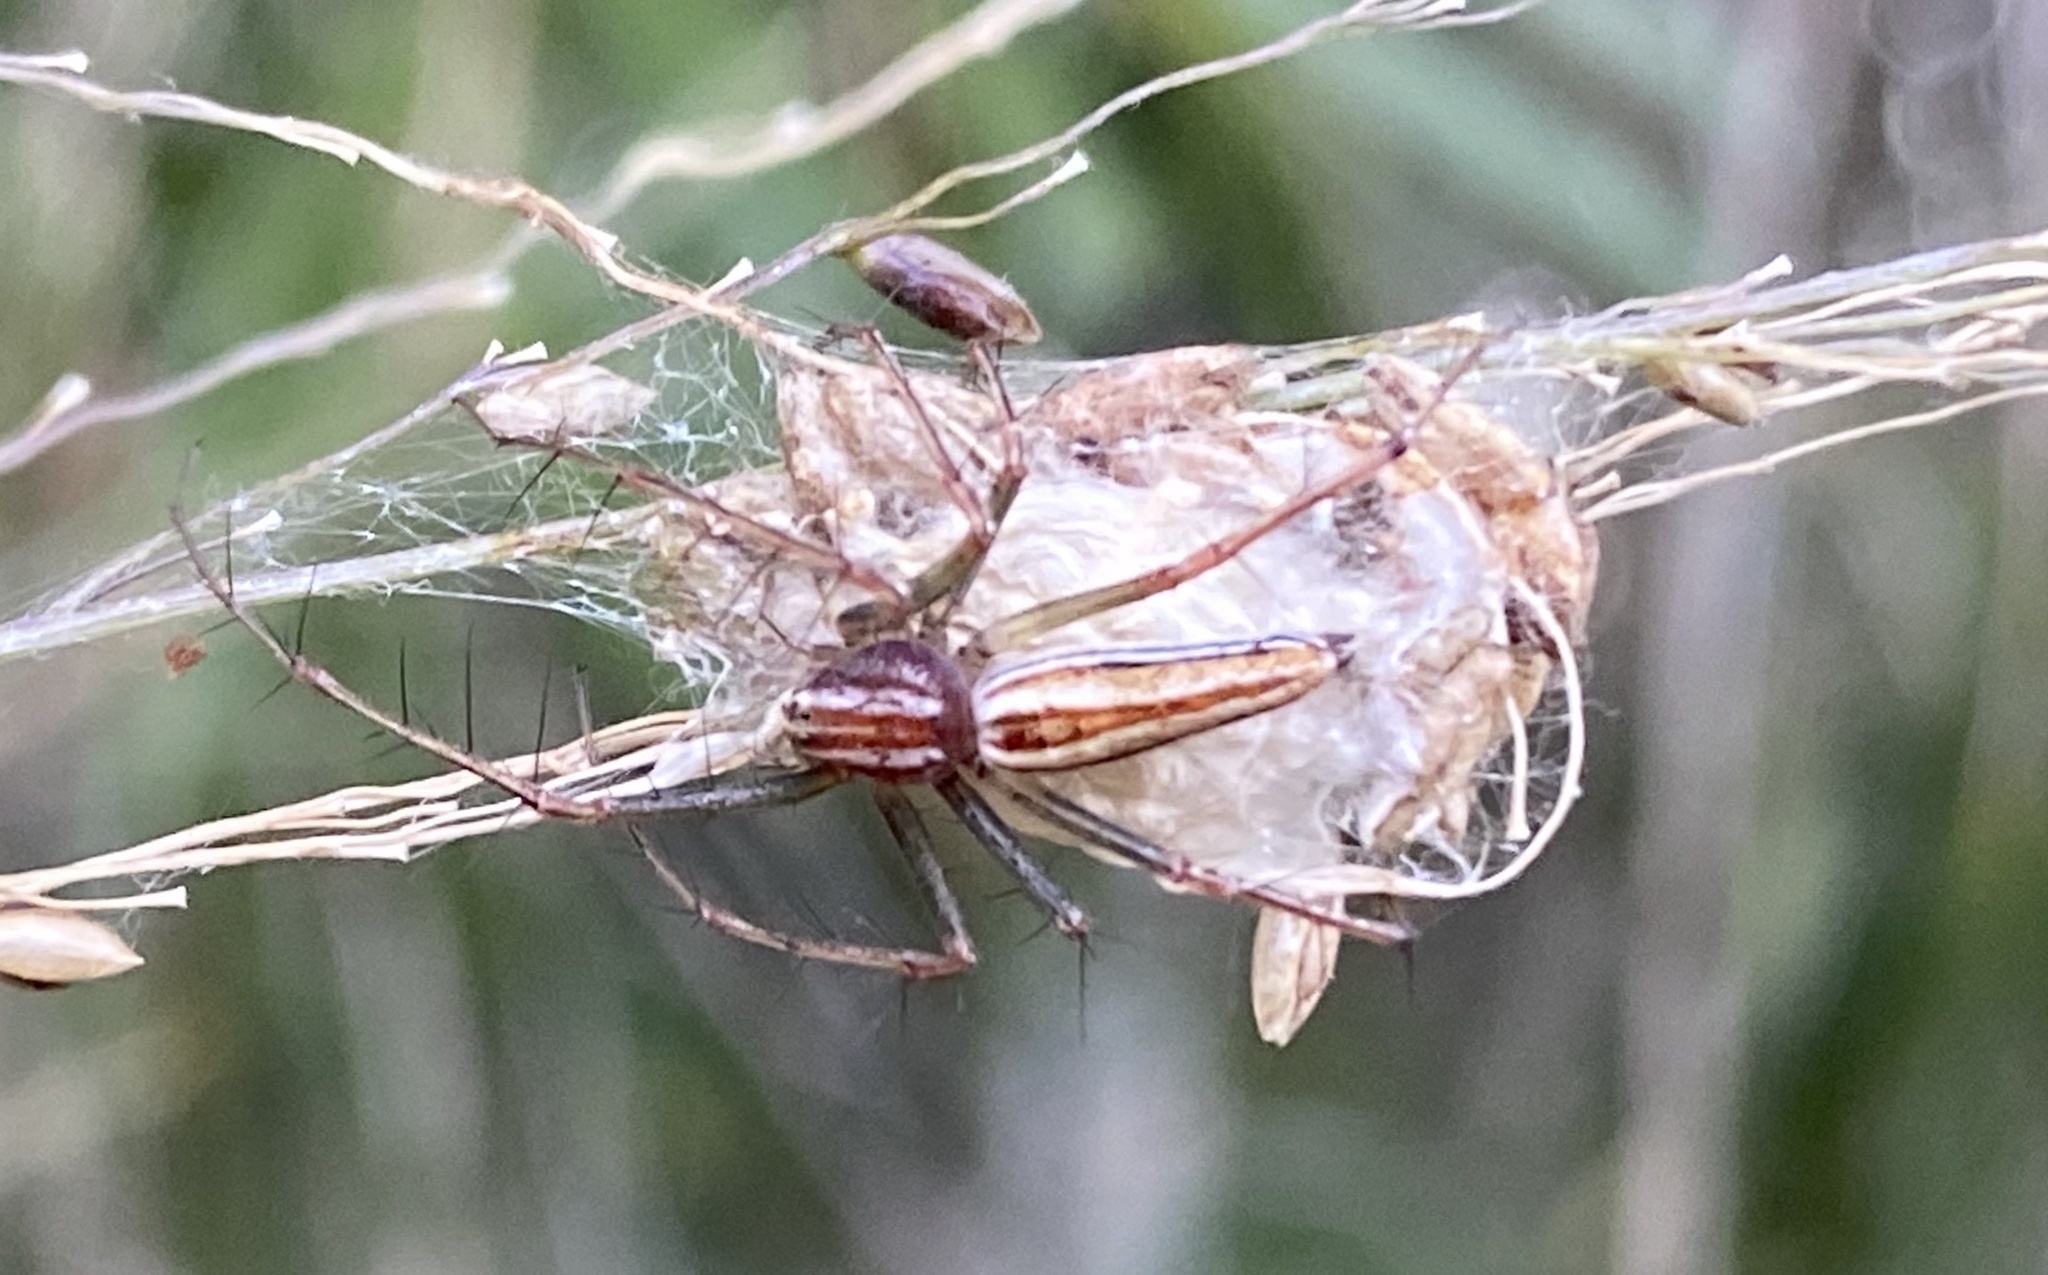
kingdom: Animalia
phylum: Arthropoda
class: Arachnida
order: Araneae
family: Oxyopidae
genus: Oxyopes
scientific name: Oxyopes macilentus
